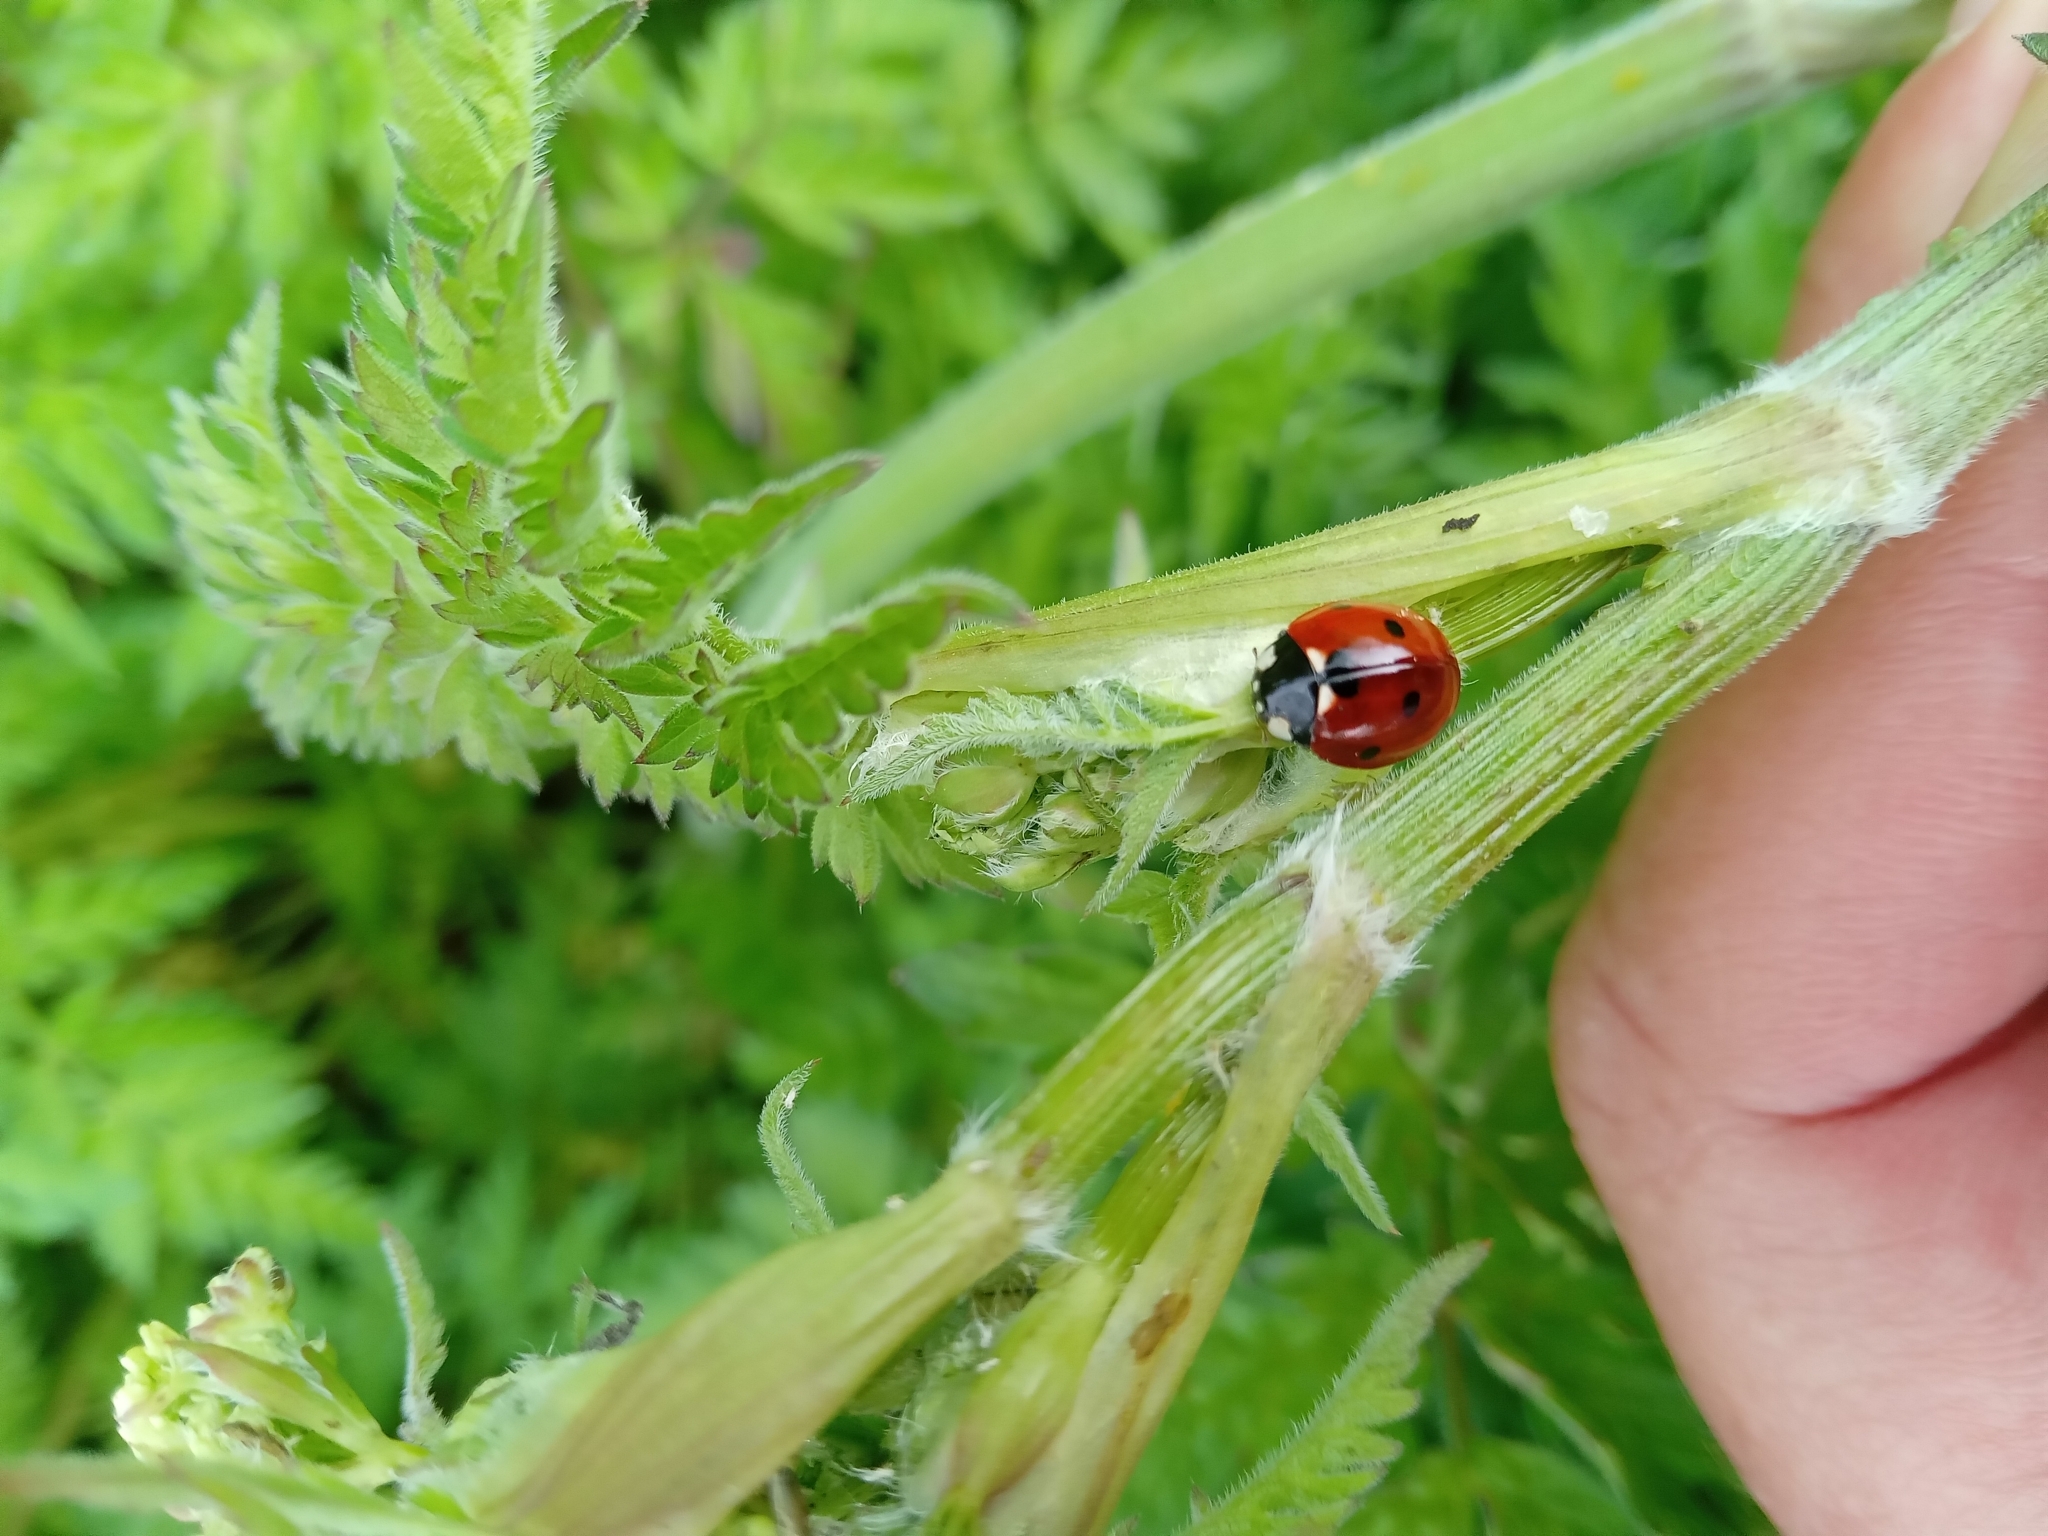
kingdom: Animalia
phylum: Arthropoda
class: Insecta
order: Coleoptera
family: Coccinellidae
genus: Coccinella
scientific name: Coccinella septempunctata
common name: Sevenspotted lady beetle
